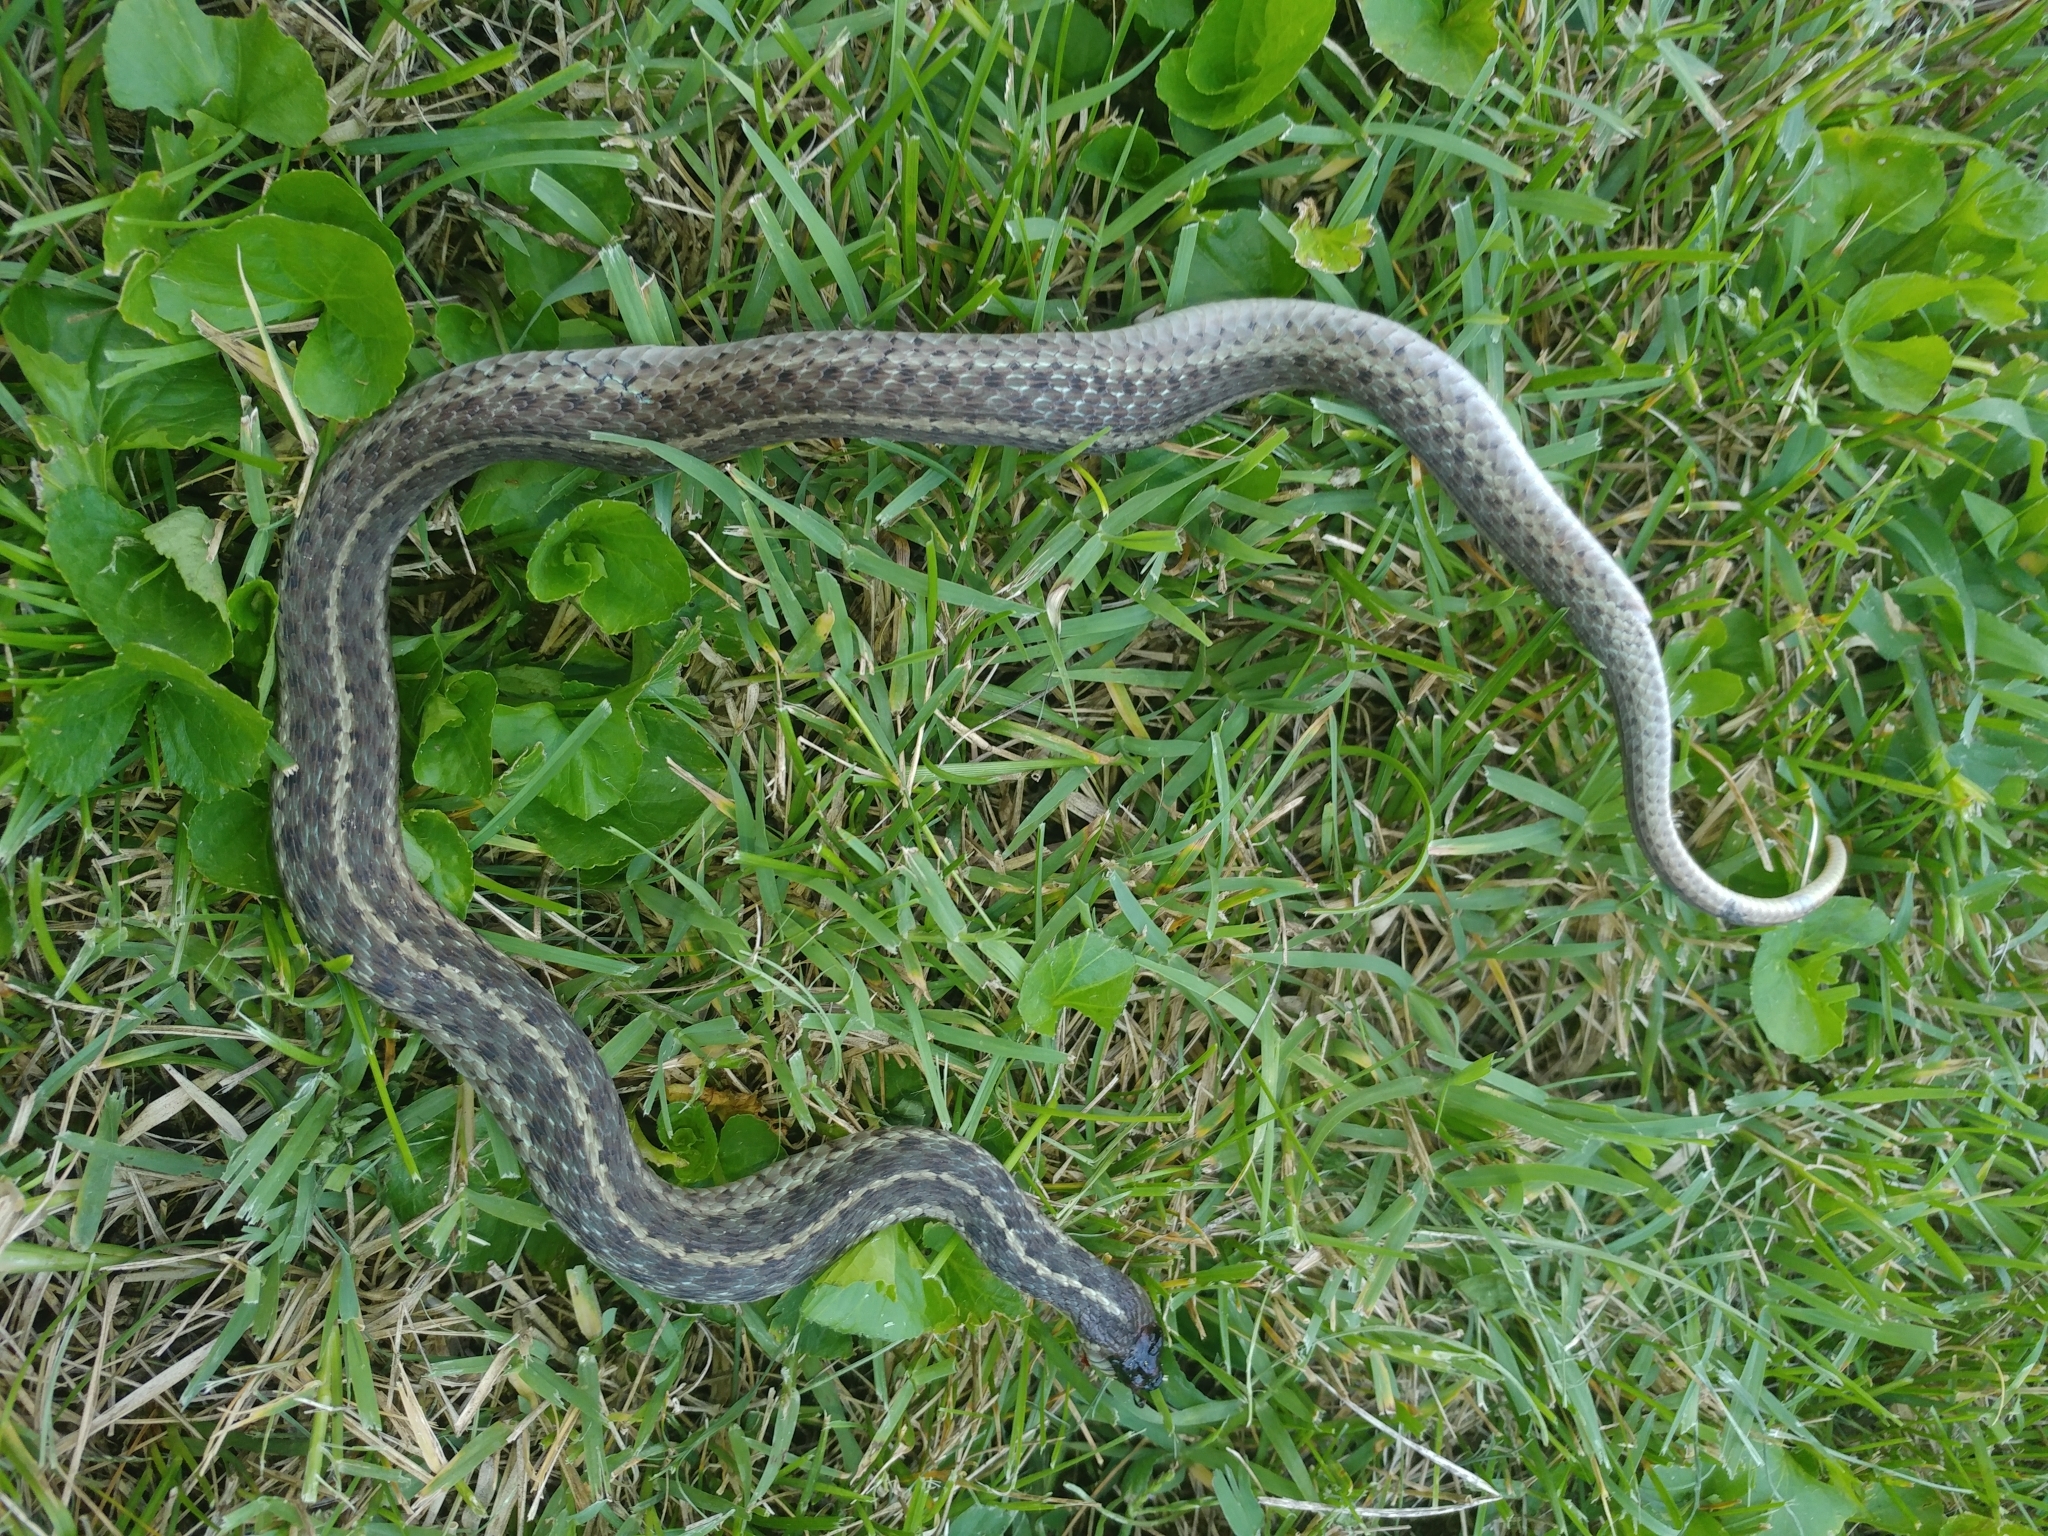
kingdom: Animalia
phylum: Chordata
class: Squamata
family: Colubridae
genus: Thamnophis
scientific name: Thamnophis sirtalis
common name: Common garter snake
